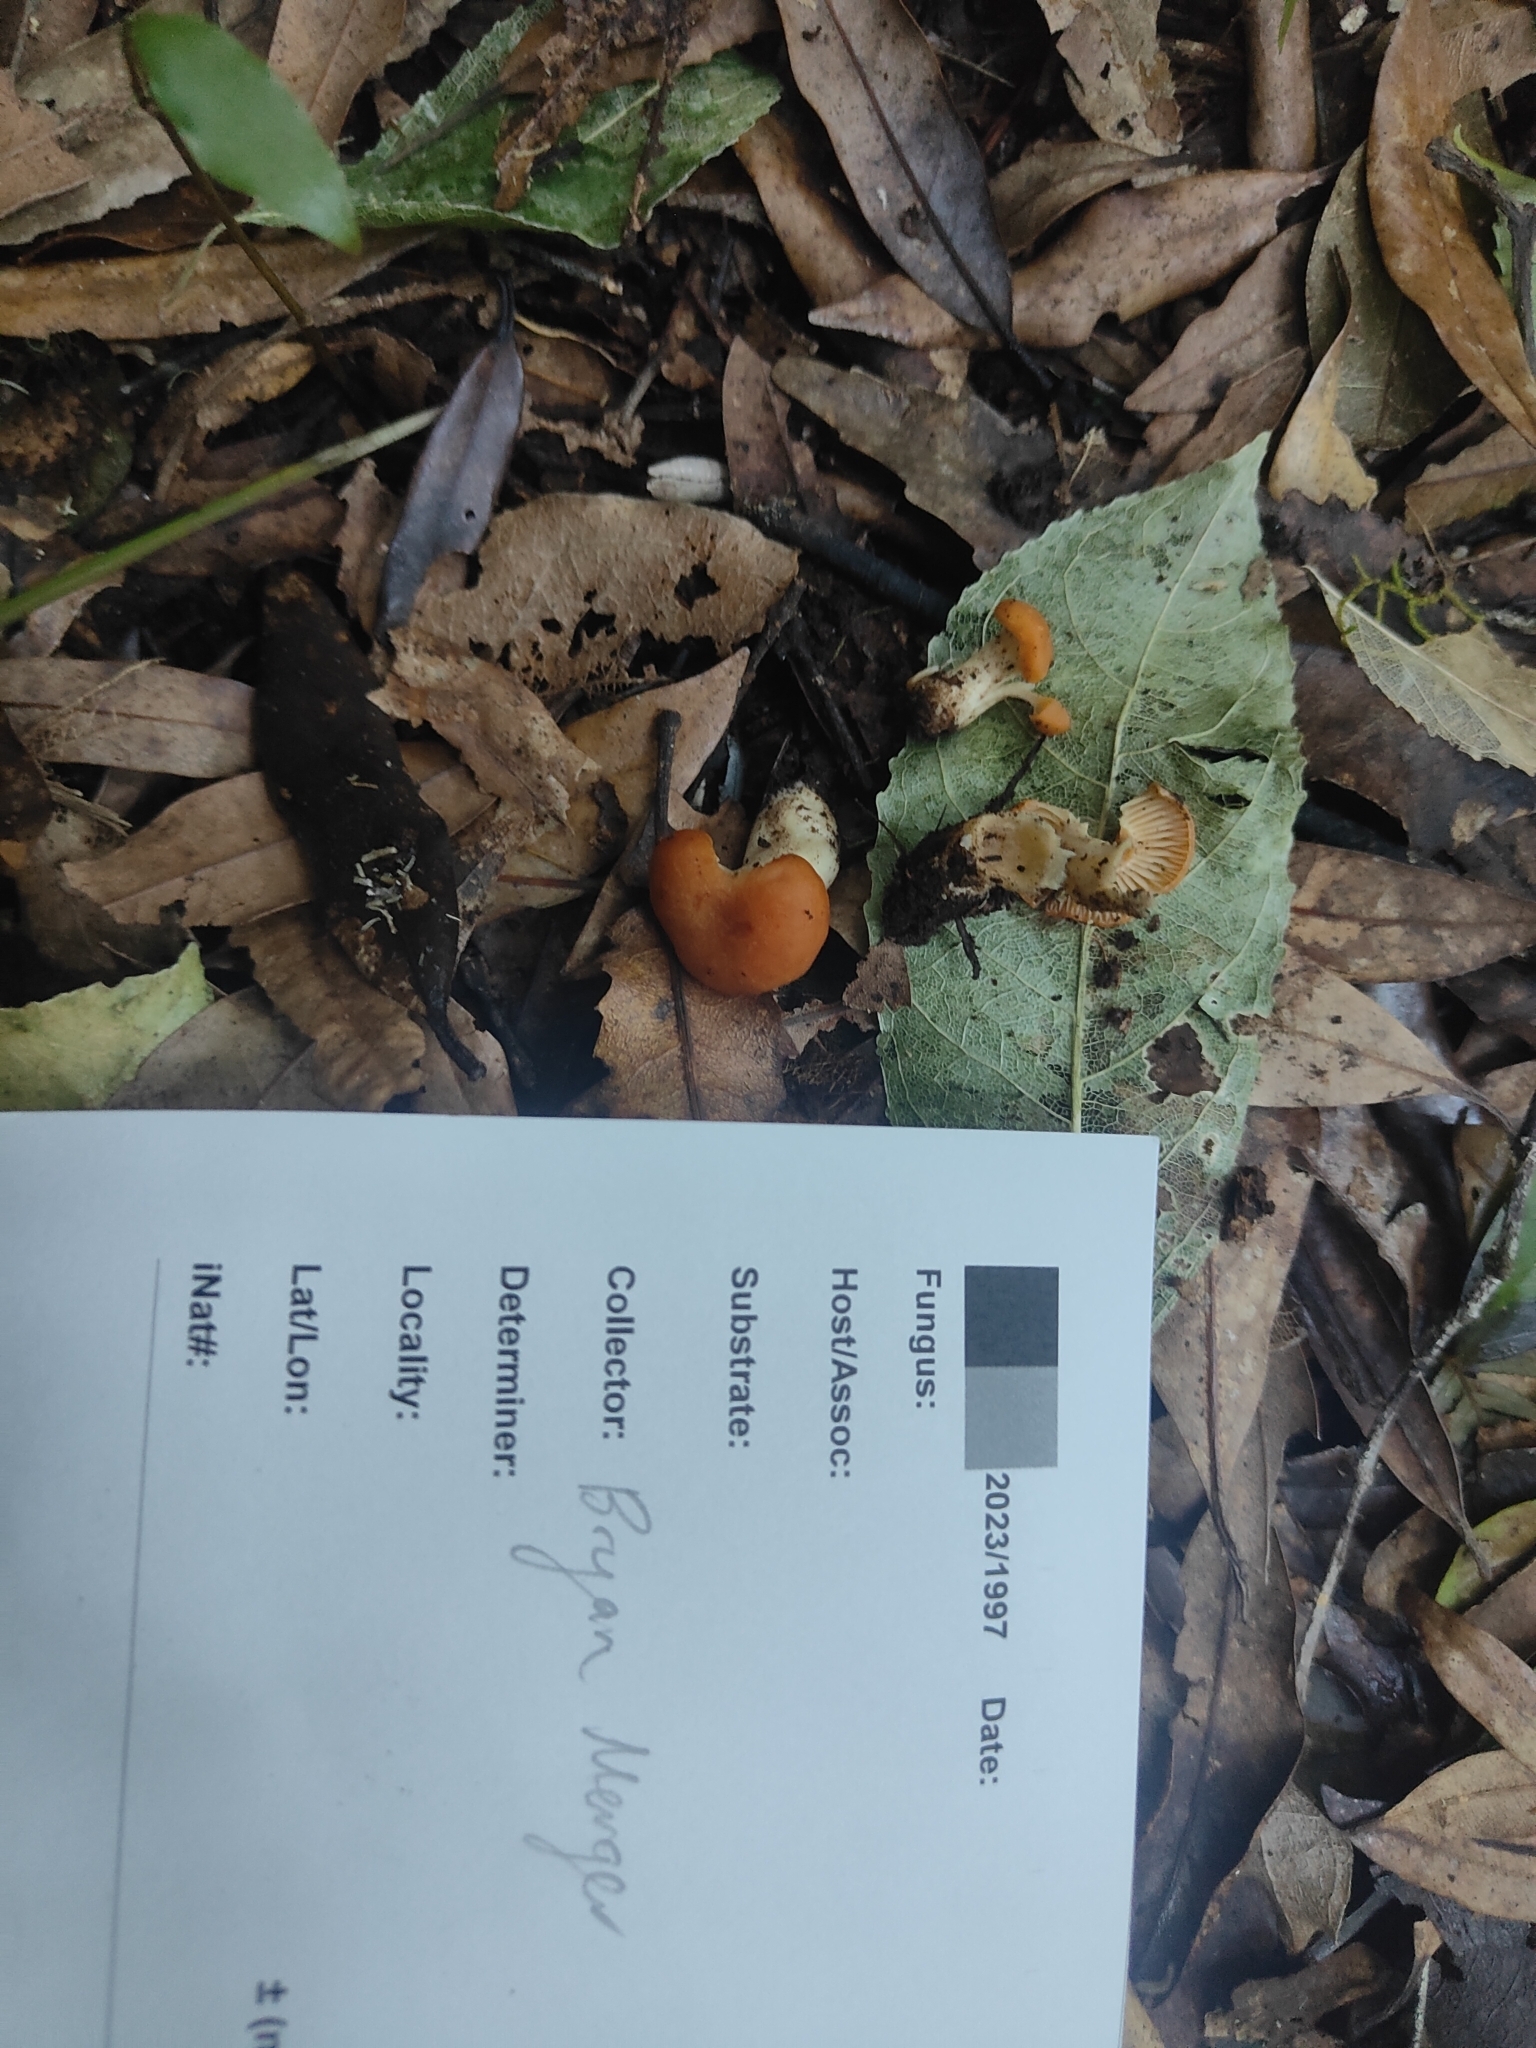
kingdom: Fungi
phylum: Basidiomycota
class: Agaricomycetes
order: Agaricales
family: Hygrophoraceae
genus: Cuphophyllus
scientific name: Cuphophyllus
